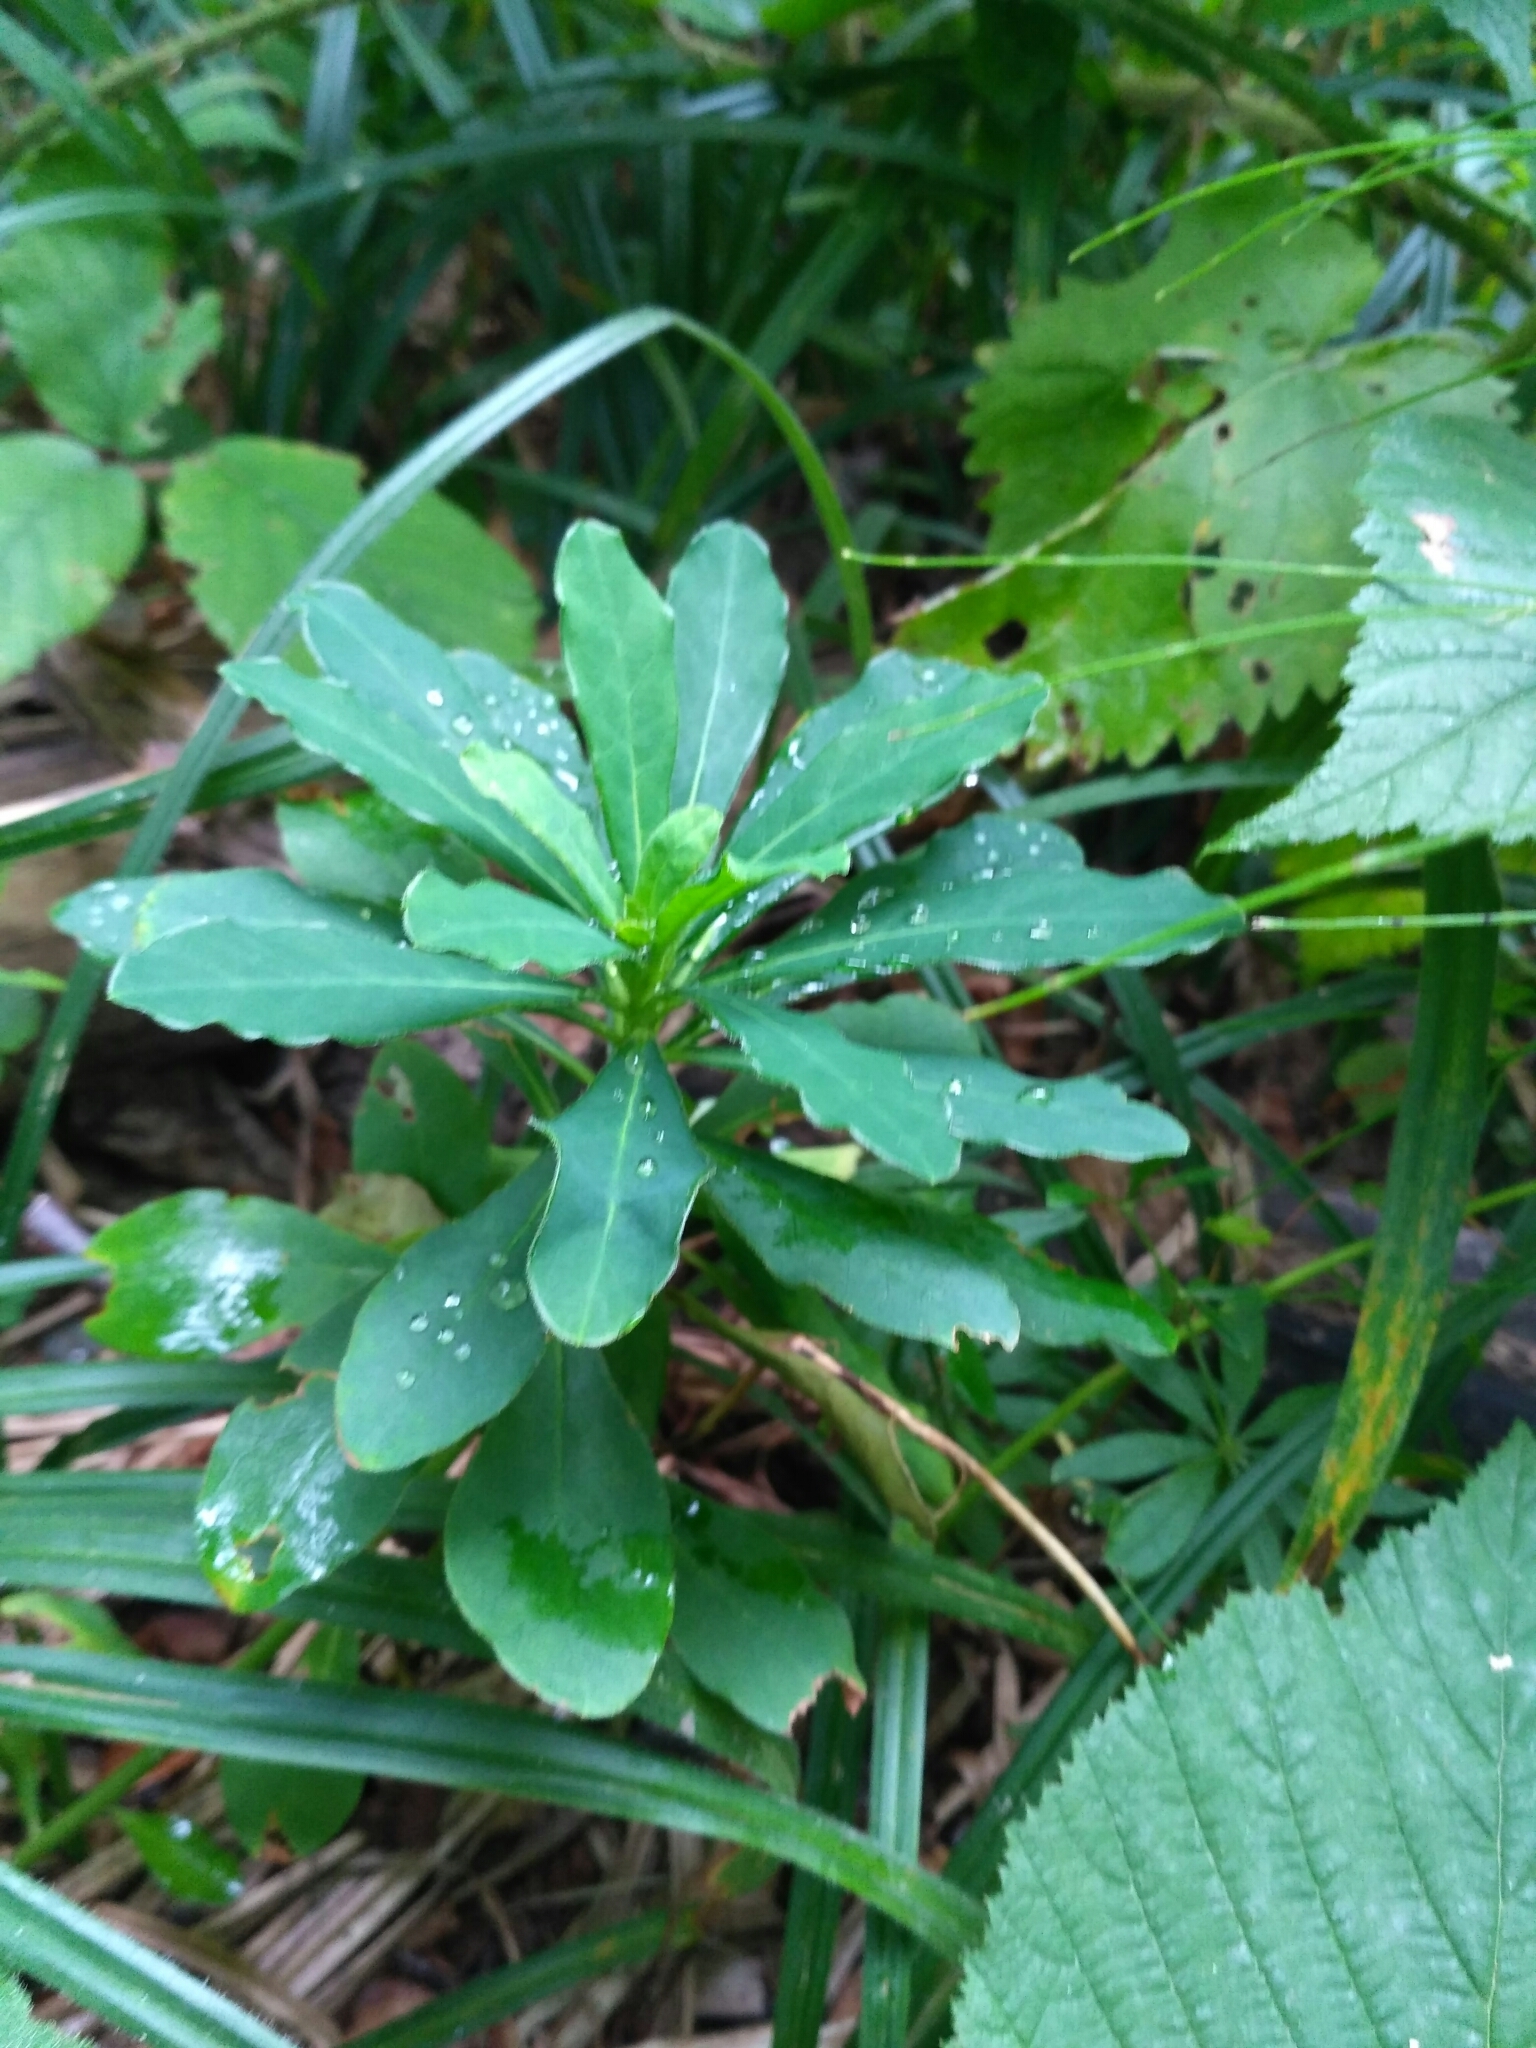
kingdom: Plantae
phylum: Tracheophyta
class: Magnoliopsida
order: Malpighiales
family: Euphorbiaceae
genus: Euphorbia
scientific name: Euphorbia amygdaloides
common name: Wood spurge
